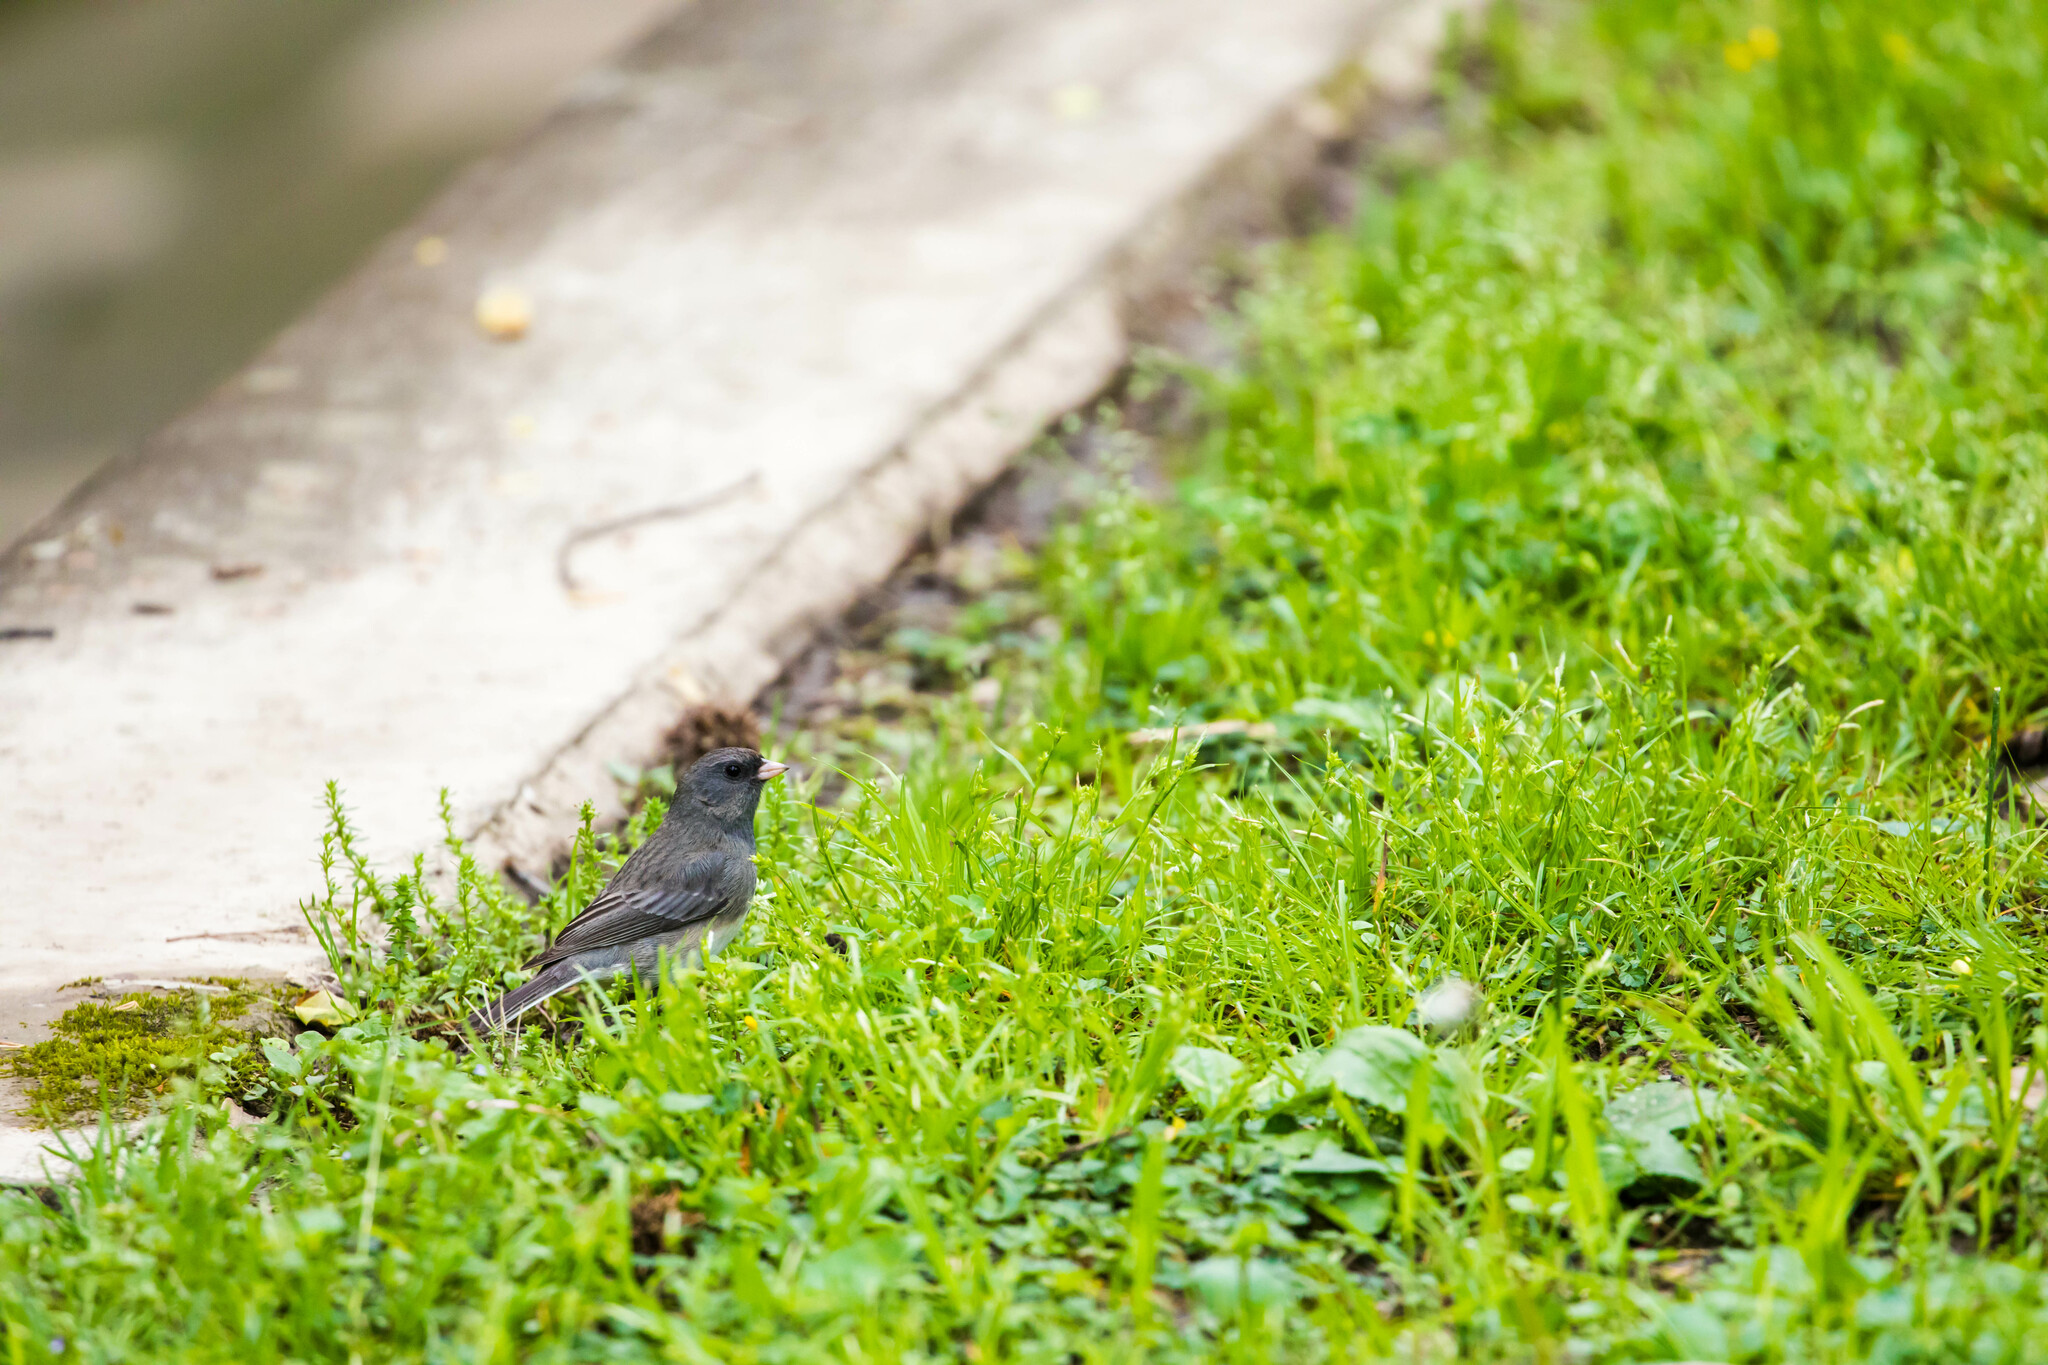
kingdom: Animalia
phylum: Chordata
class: Aves
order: Passeriformes
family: Passerellidae
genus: Junco
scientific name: Junco hyemalis
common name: Dark-eyed junco
